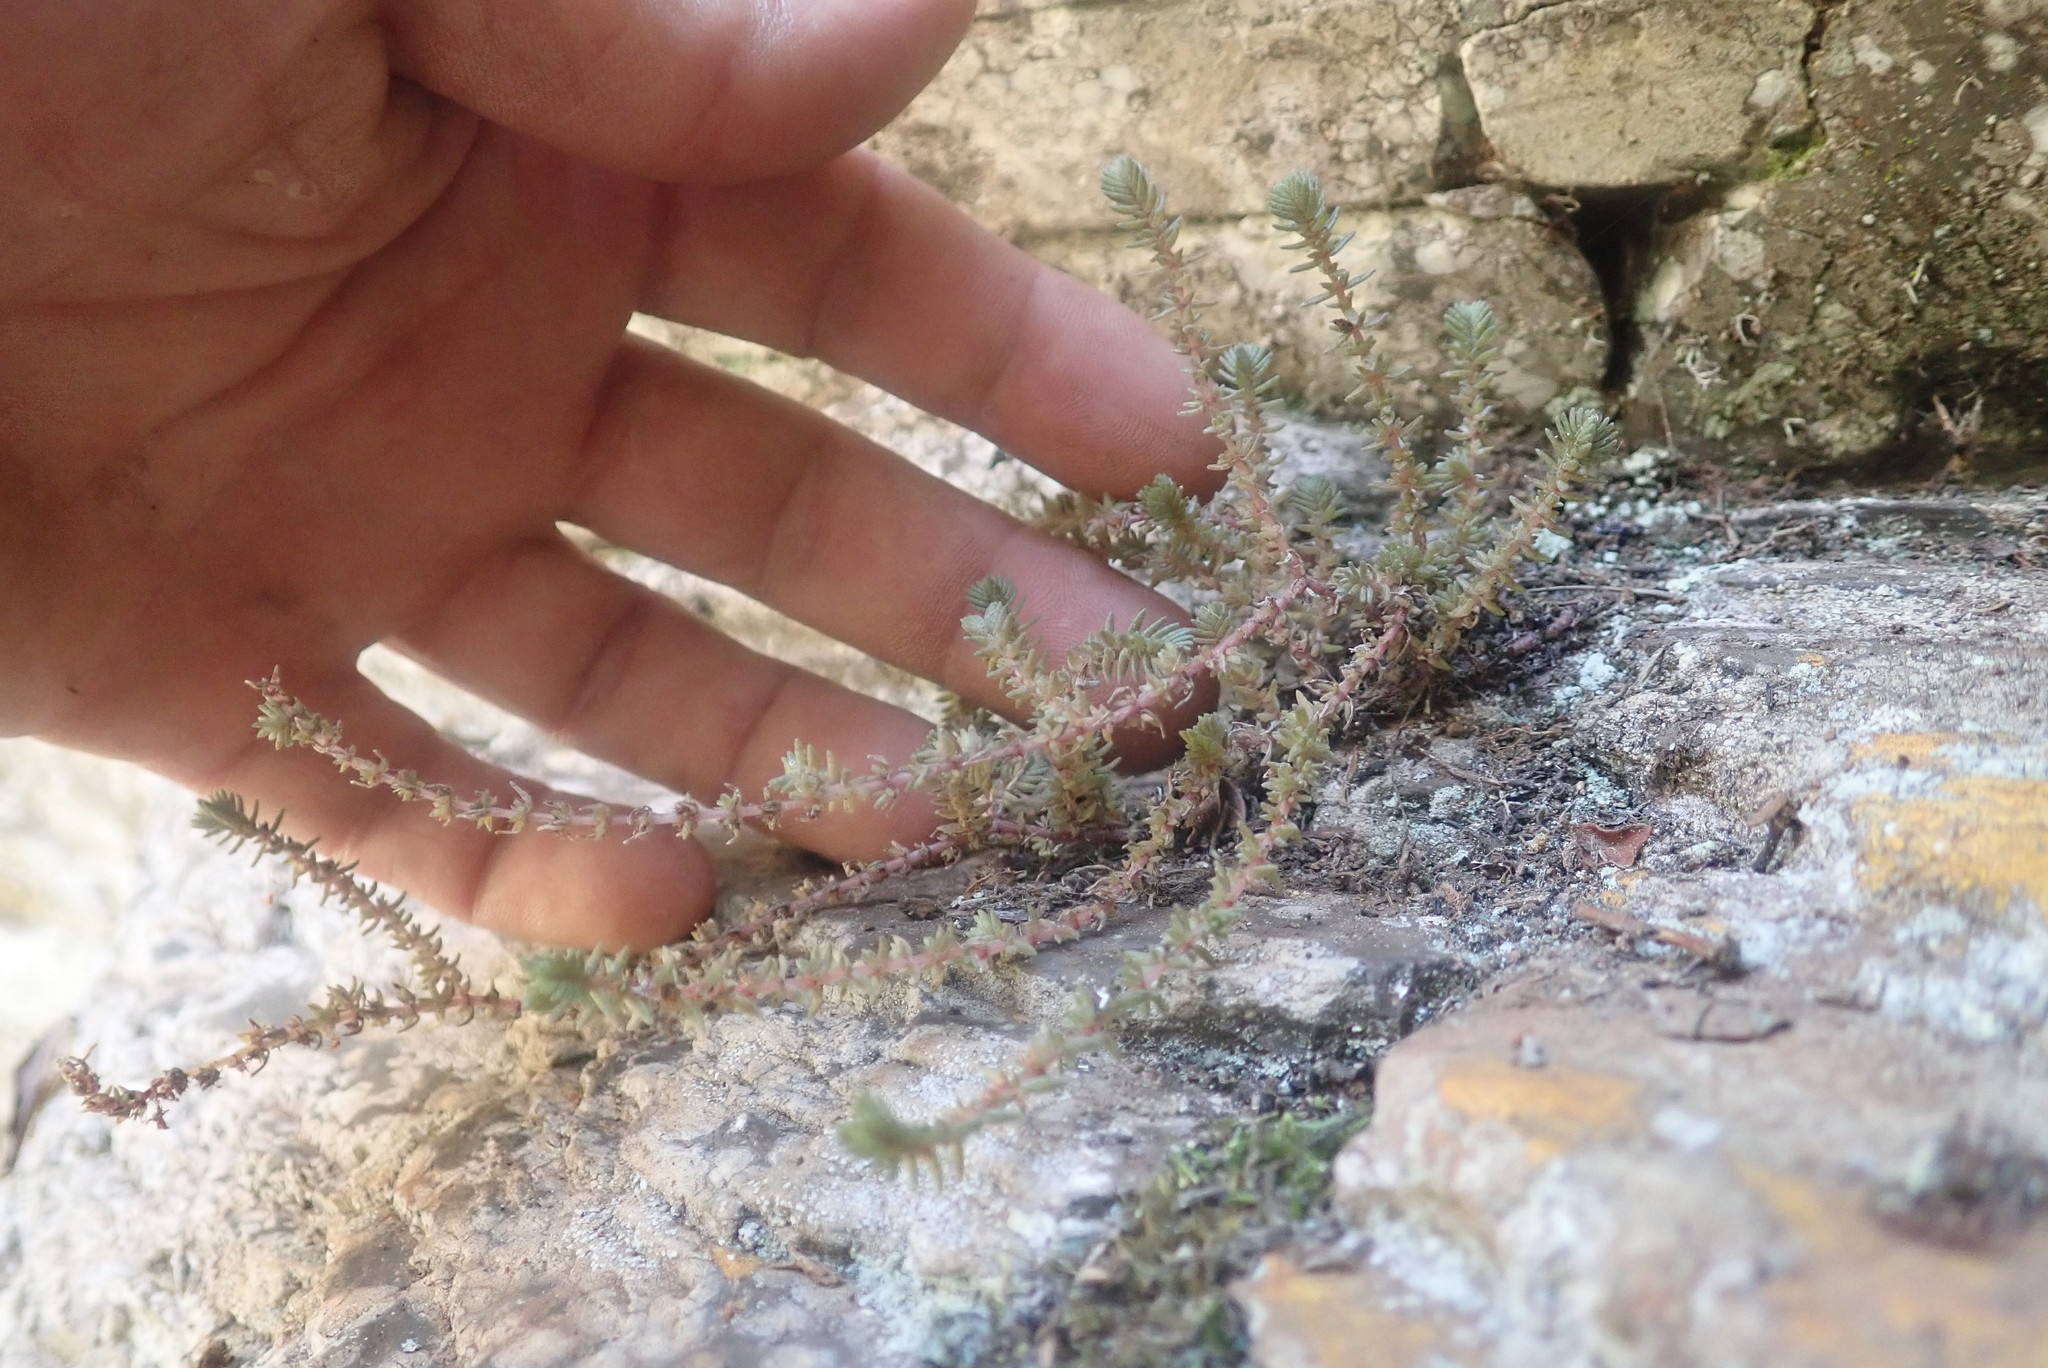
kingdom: Plantae
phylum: Tracheophyta
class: Magnoliopsida
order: Saxifragales
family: Crassulaceae
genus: Crassula
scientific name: Crassula lanceolata
